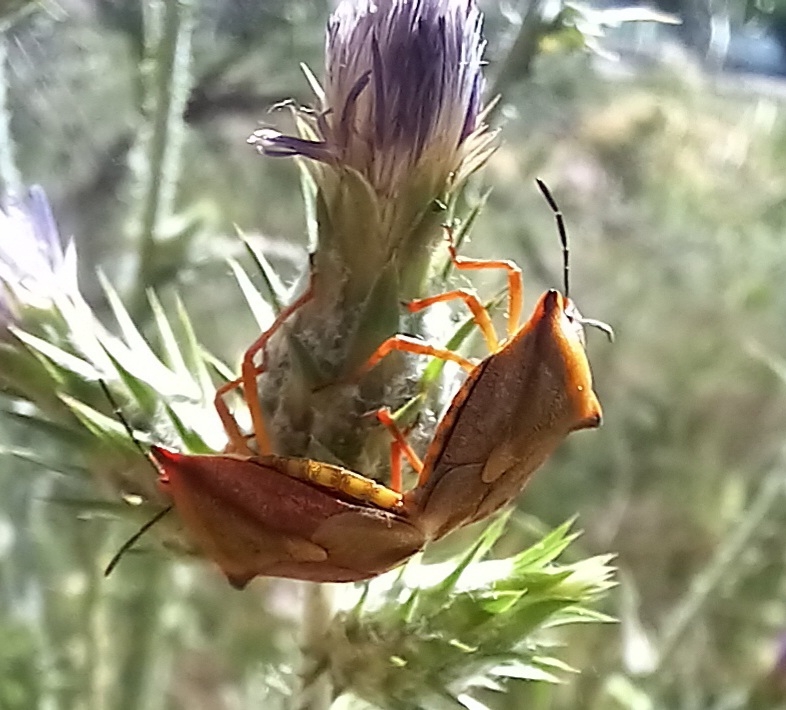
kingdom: Animalia
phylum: Arthropoda
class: Insecta
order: Hemiptera
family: Pentatomidae
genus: Carpocoris
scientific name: Carpocoris mediterraneus
